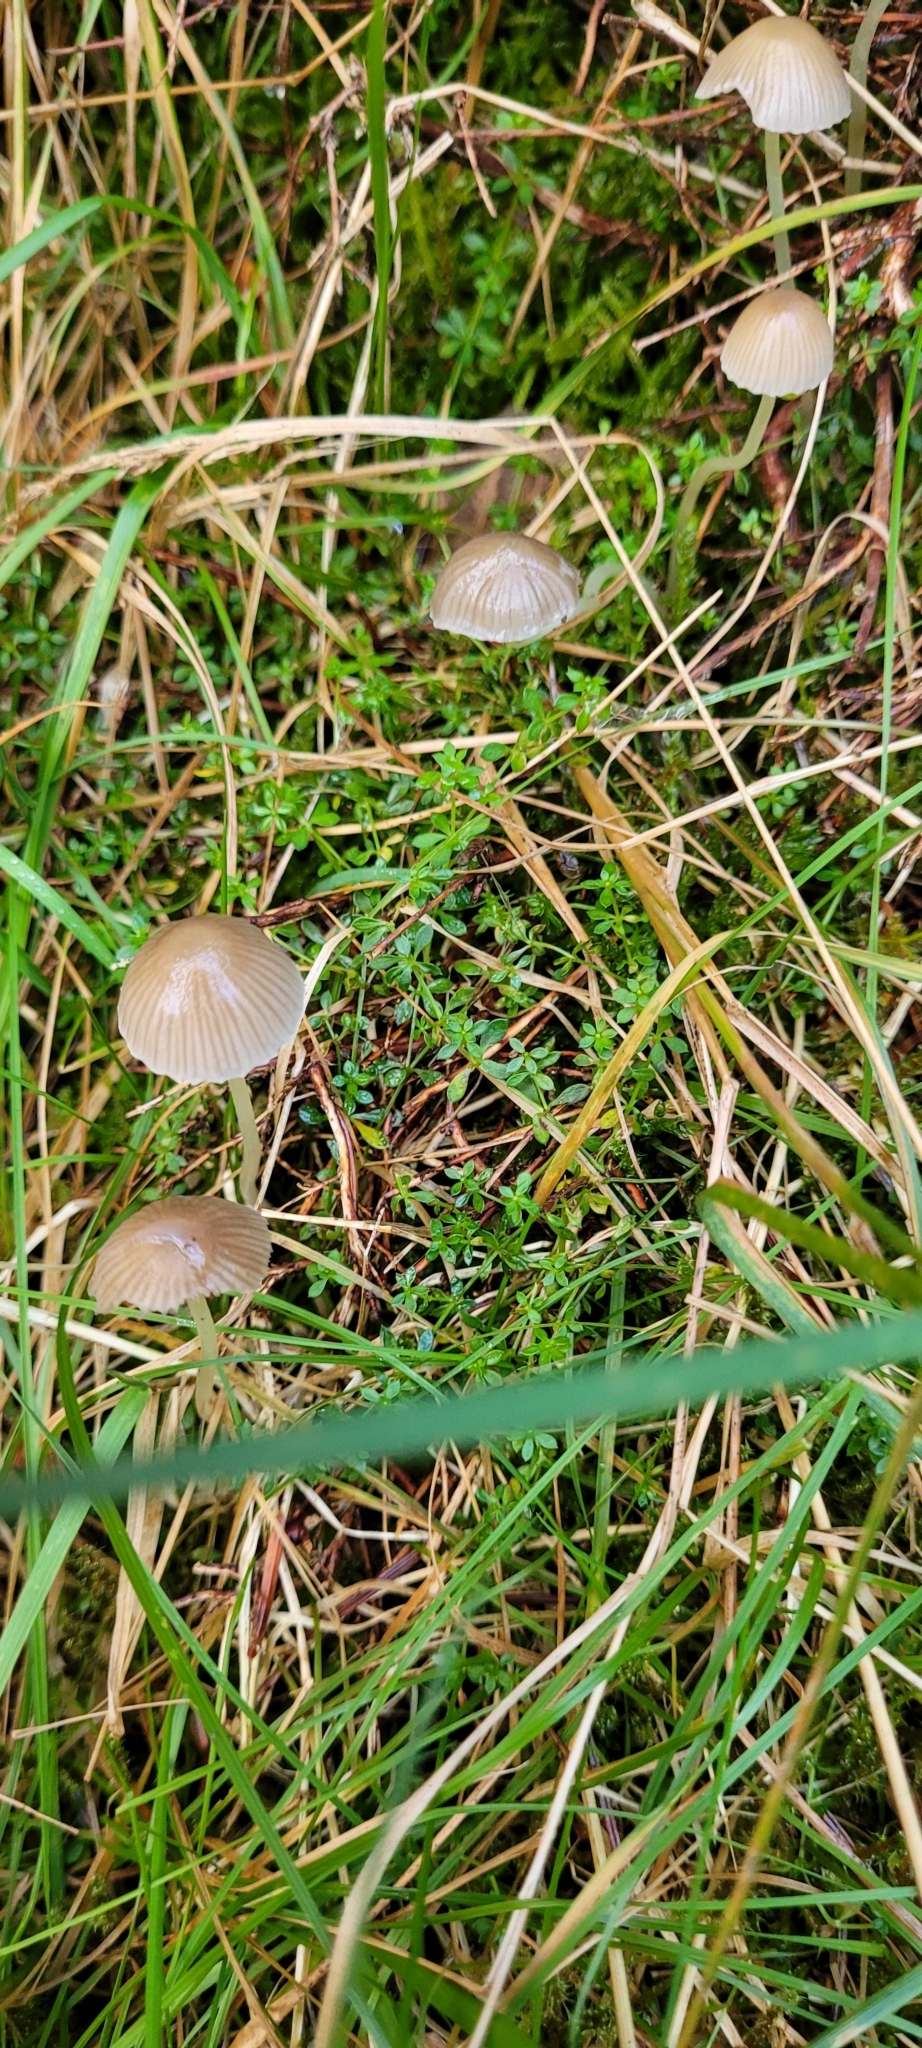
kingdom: Fungi
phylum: Basidiomycota
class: Agaricomycetes
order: Agaricales
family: Mycenaceae
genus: Mycena
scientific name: Mycena epipterygia
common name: Yellowleg bonnet
